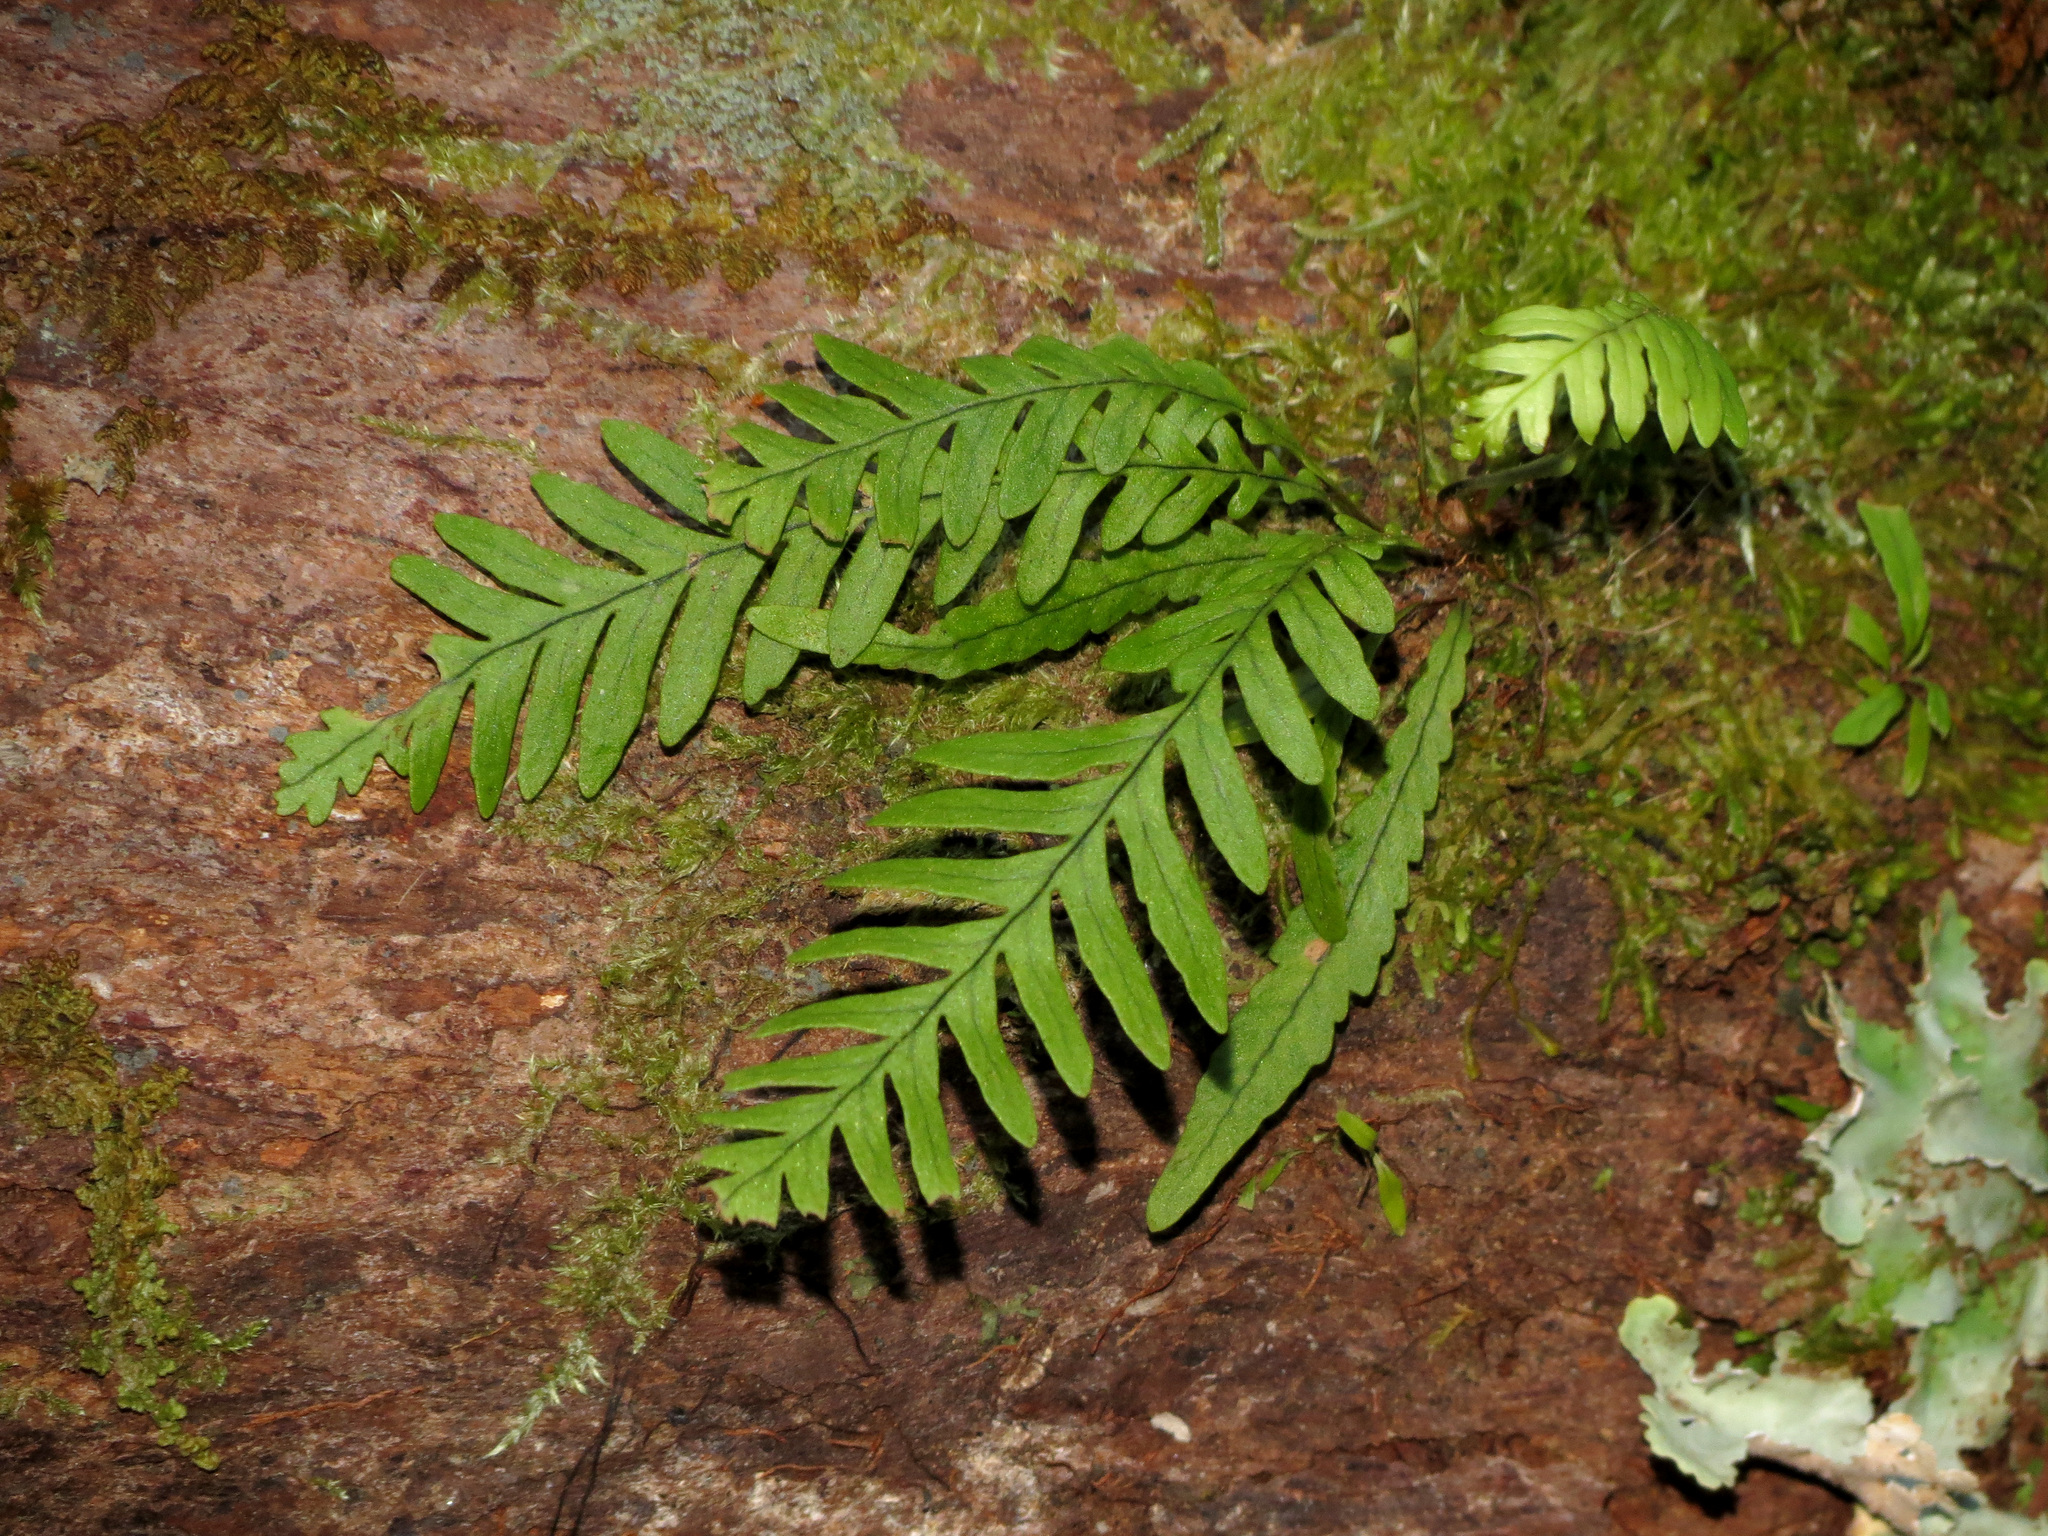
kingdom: Plantae
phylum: Tracheophyta
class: Polypodiopsida
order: Polypodiales
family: Polypodiaceae
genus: Notogrammitis
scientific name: Notogrammitis heterophylla
